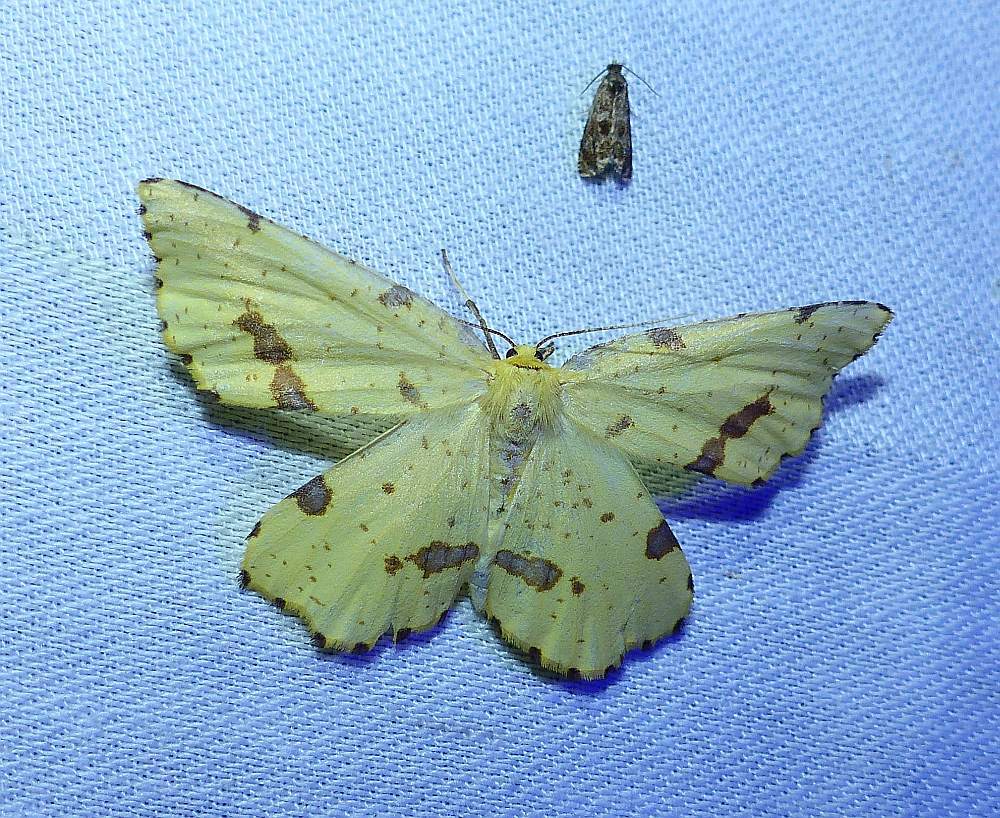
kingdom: Animalia
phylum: Arthropoda
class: Insecta
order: Lepidoptera
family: Geometridae
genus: Xanthotype
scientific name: Xanthotype
